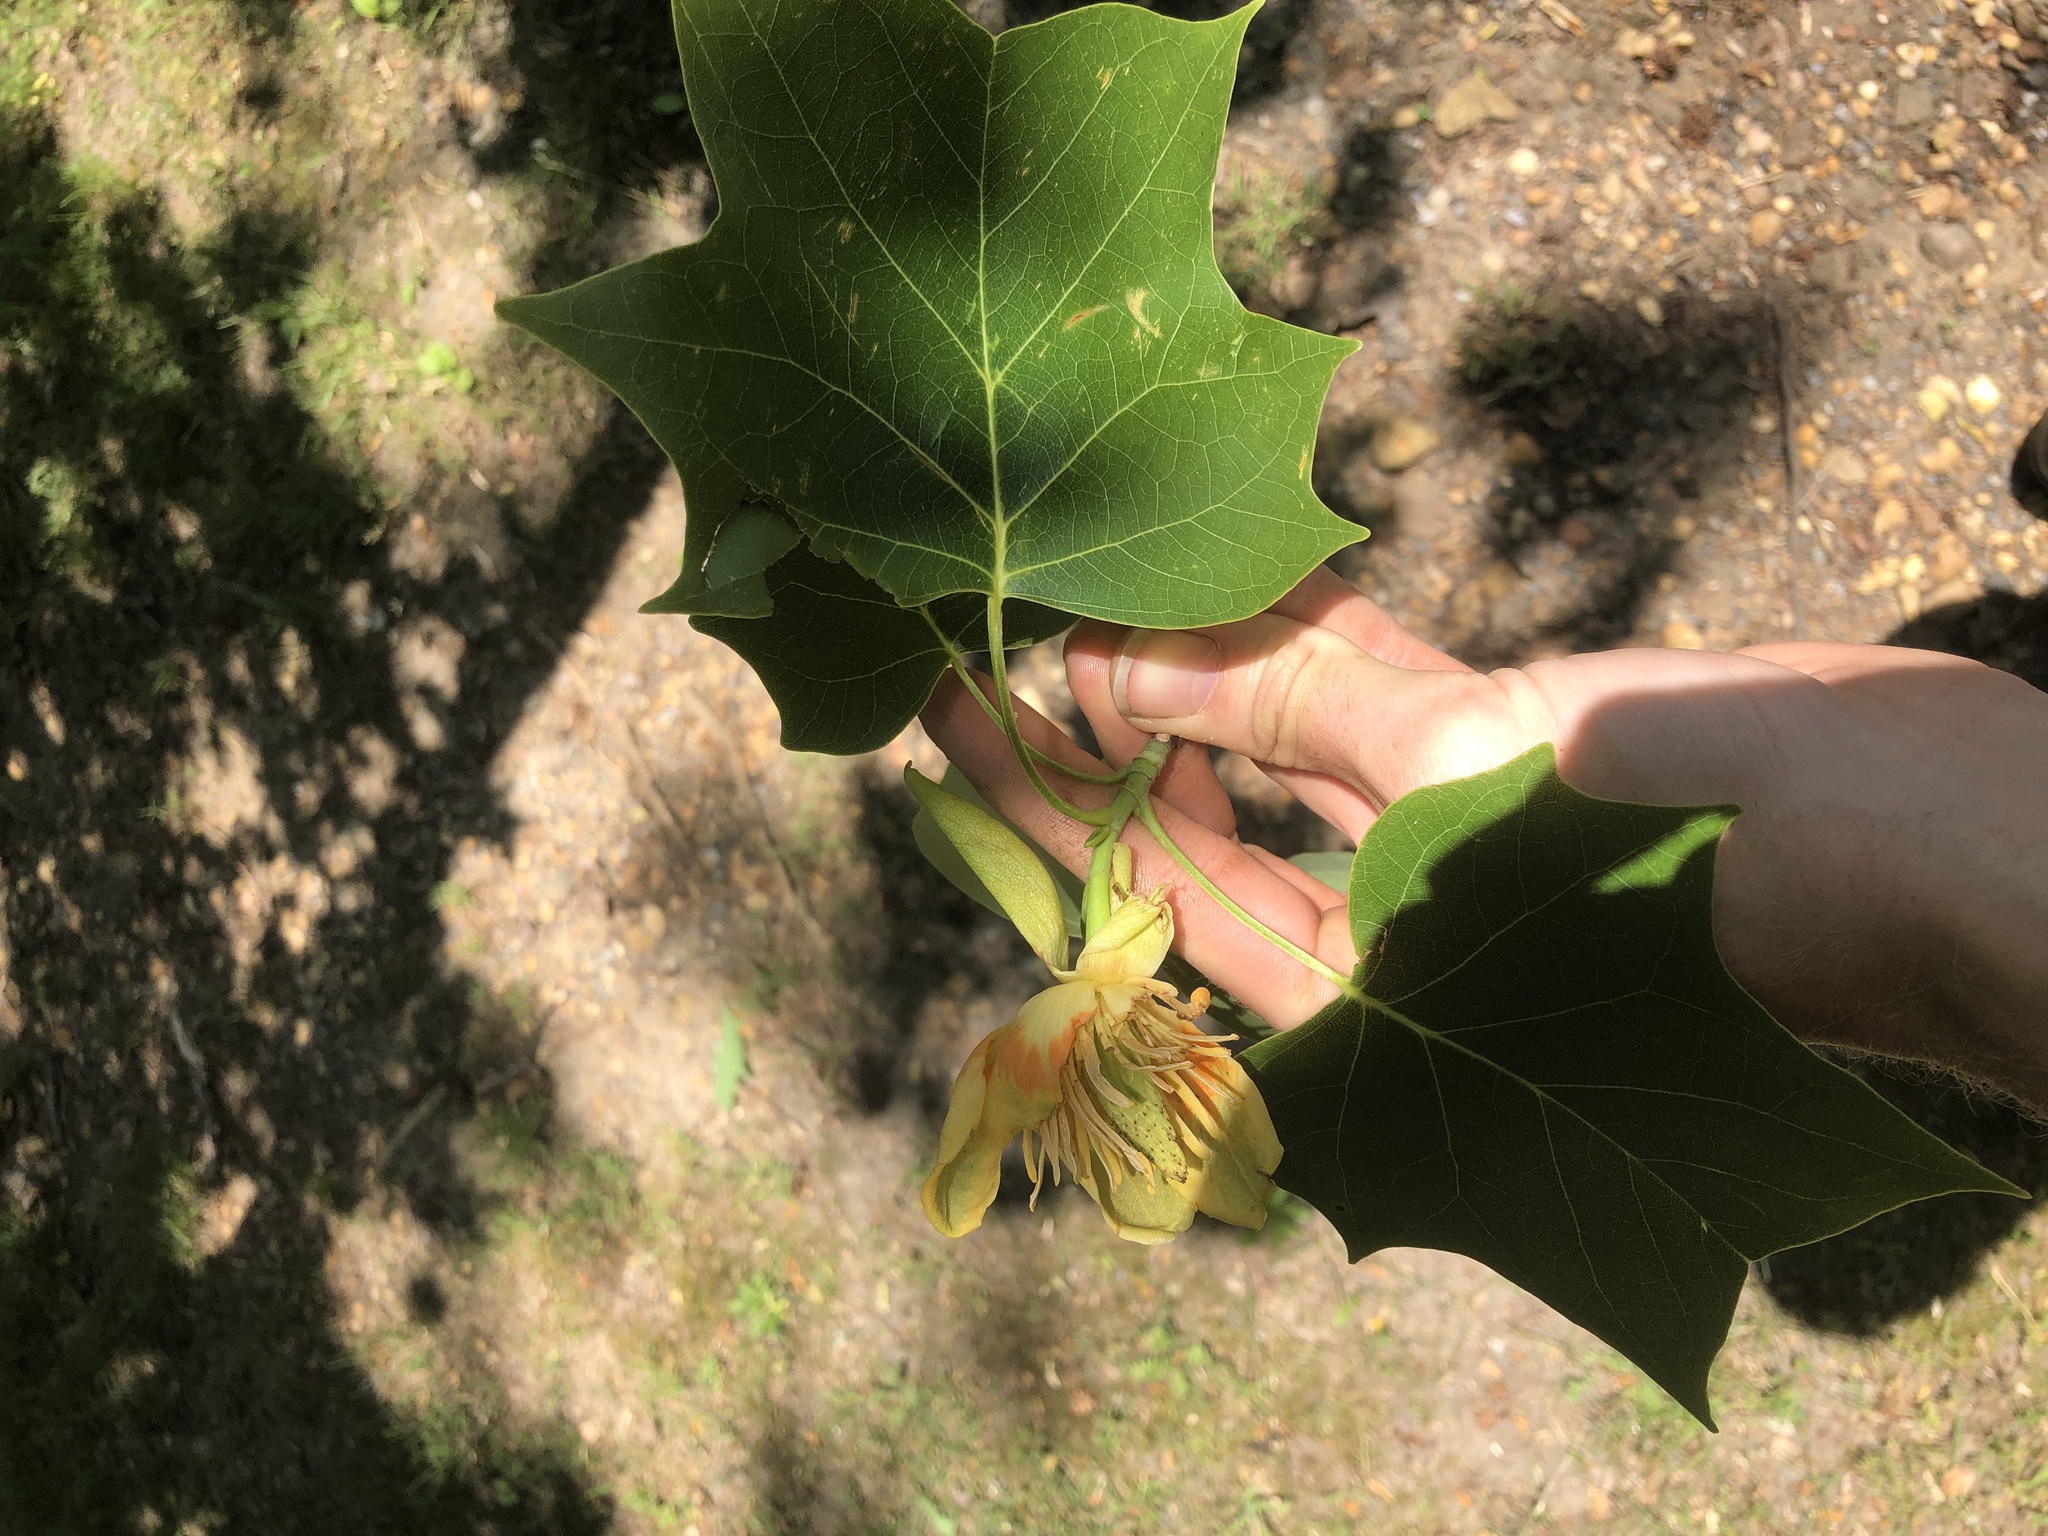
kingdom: Plantae
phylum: Tracheophyta
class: Magnoliopsida
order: Magnoliales
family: Magnoliaceae
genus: Liriodendron
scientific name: Liriodendron tulipifera
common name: Tulip tree
